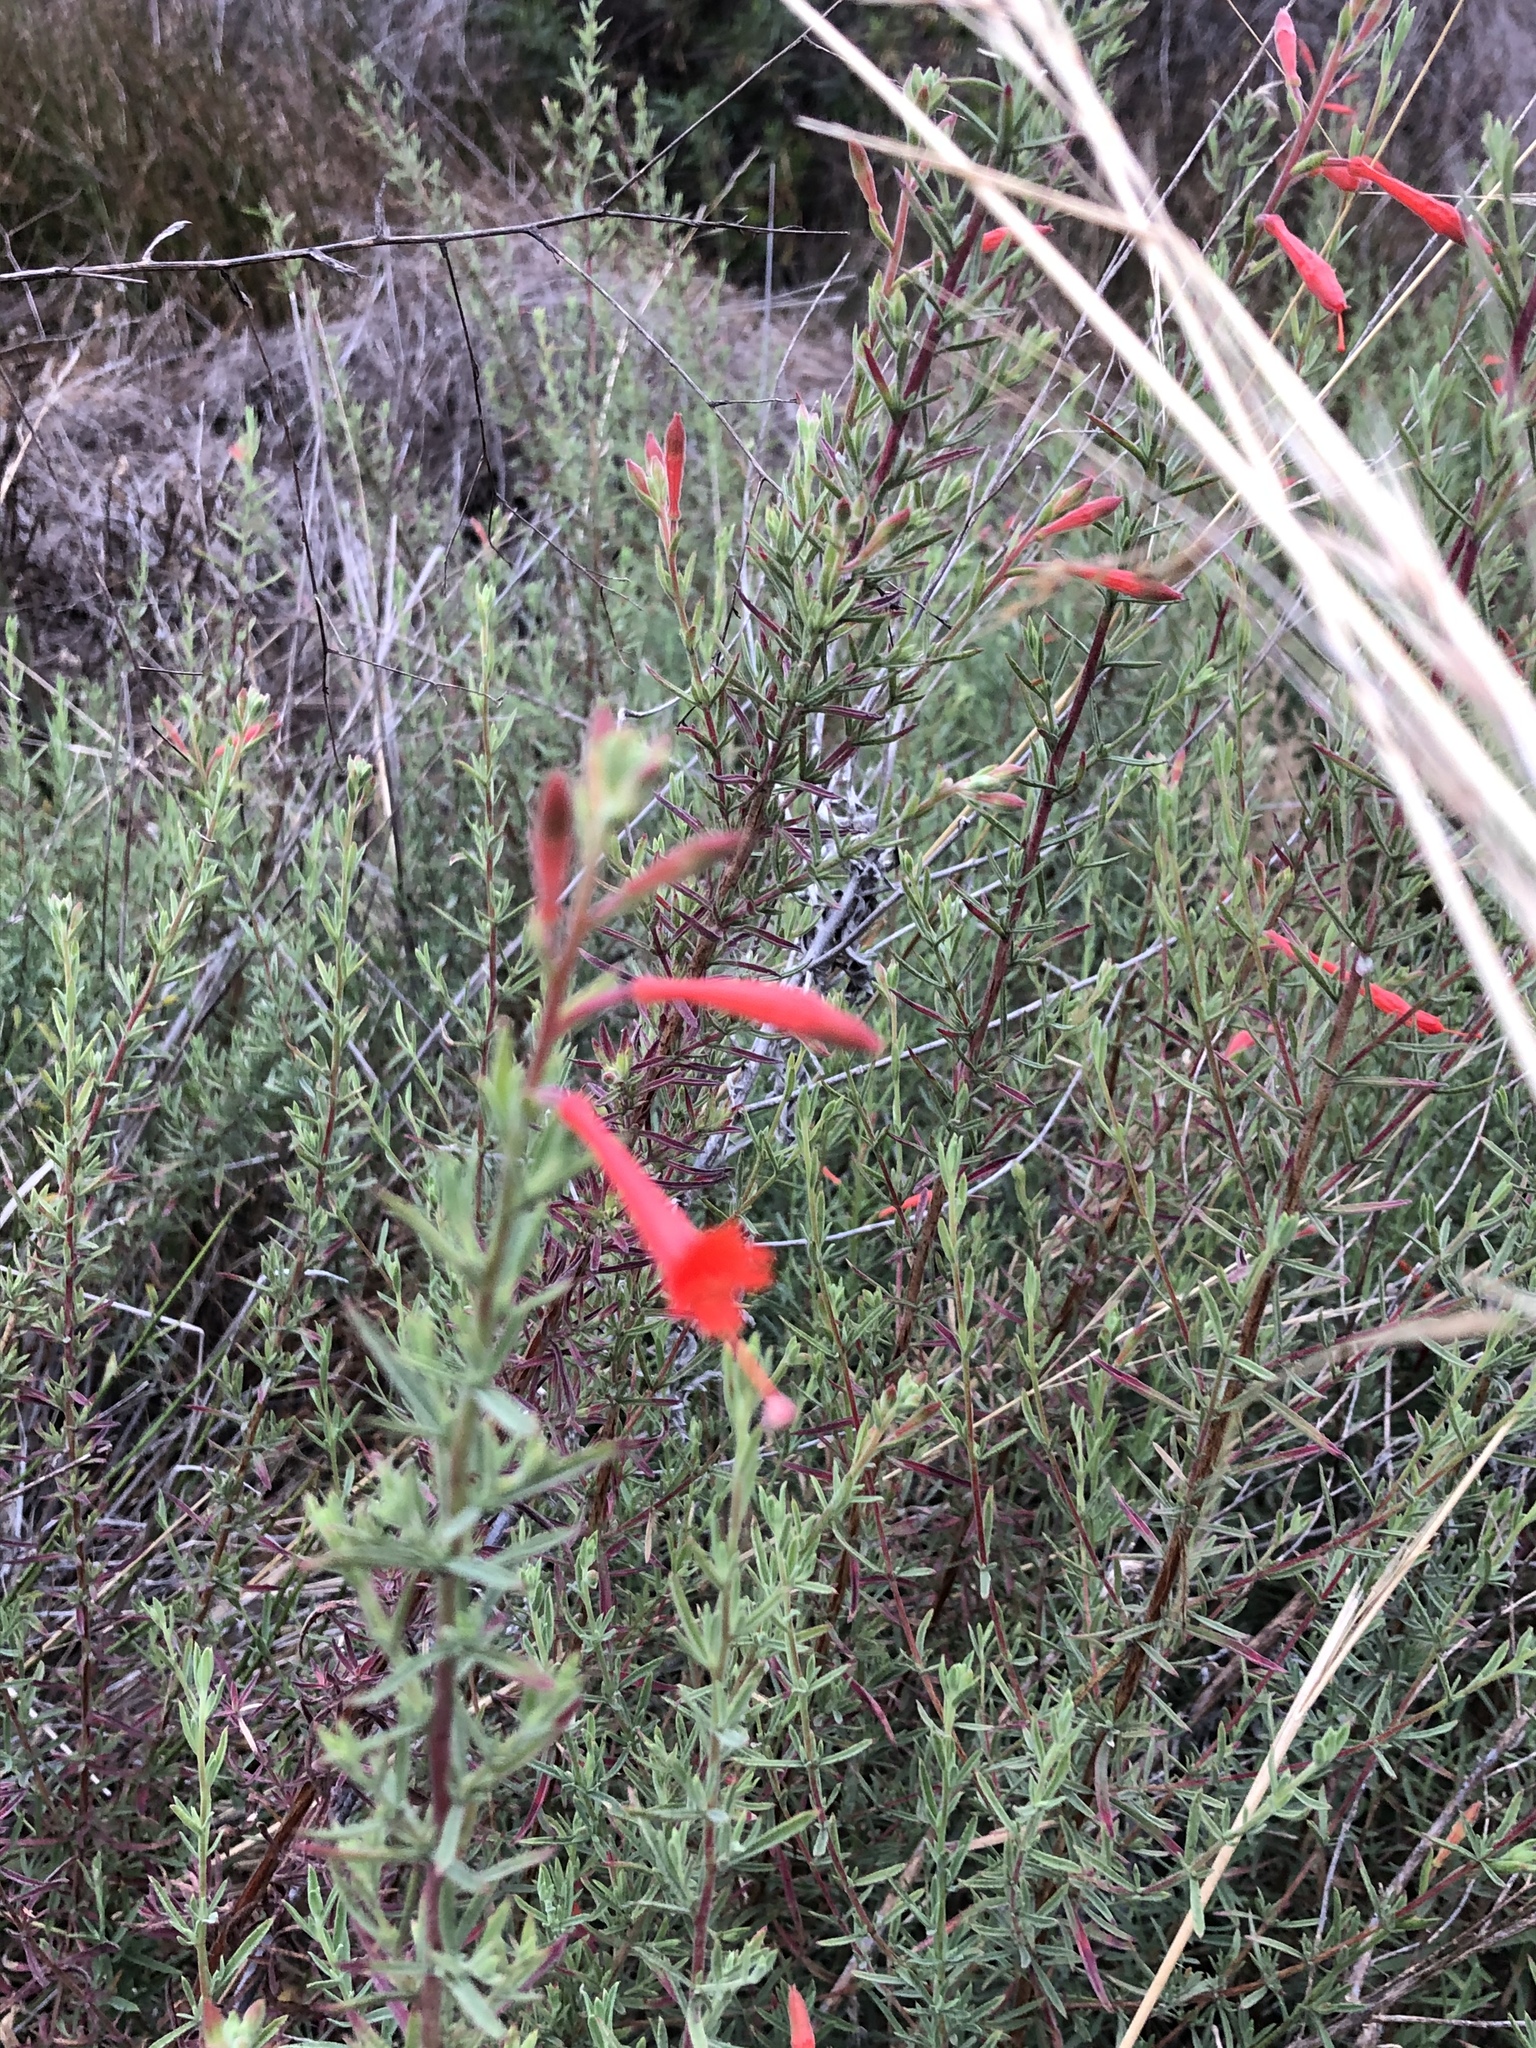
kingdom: Plantae
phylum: Tracheophyta
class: Magnoliopsida
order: Myrtales
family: Onagraceae
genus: Epilobium
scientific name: Epilobium canum
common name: California-fuchsia
